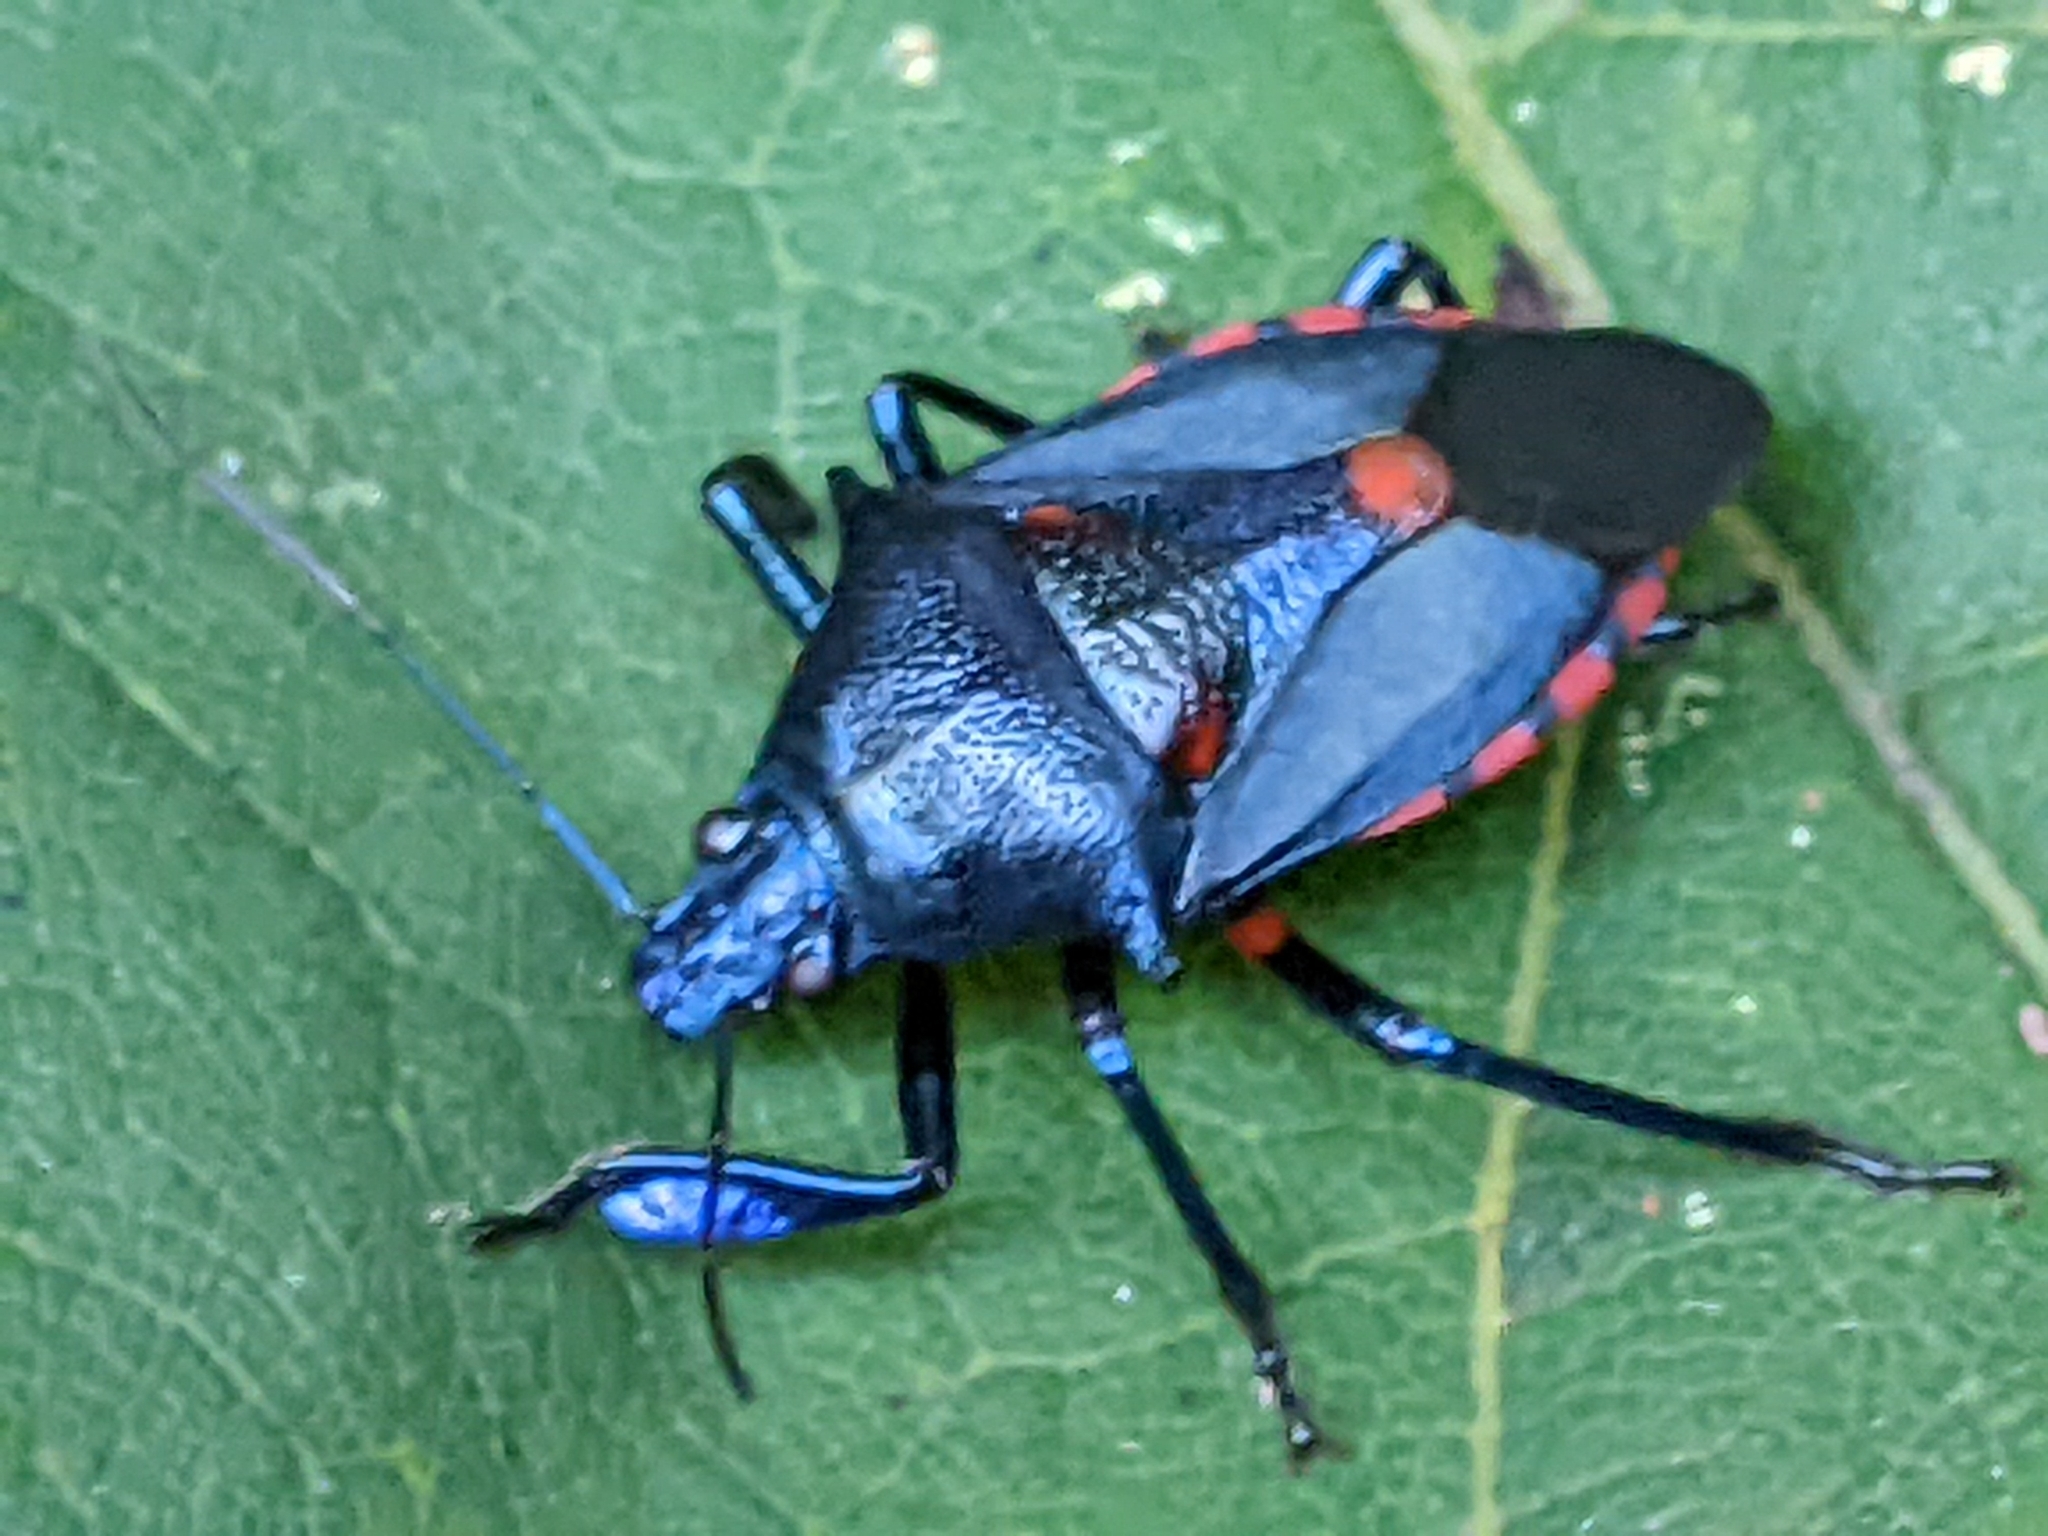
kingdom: Animalia
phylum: Arthropoda
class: Insecta
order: Hemiptera
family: Pentatomidae
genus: Euthyrhynchus
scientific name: Euthyrhynchus floridanus
